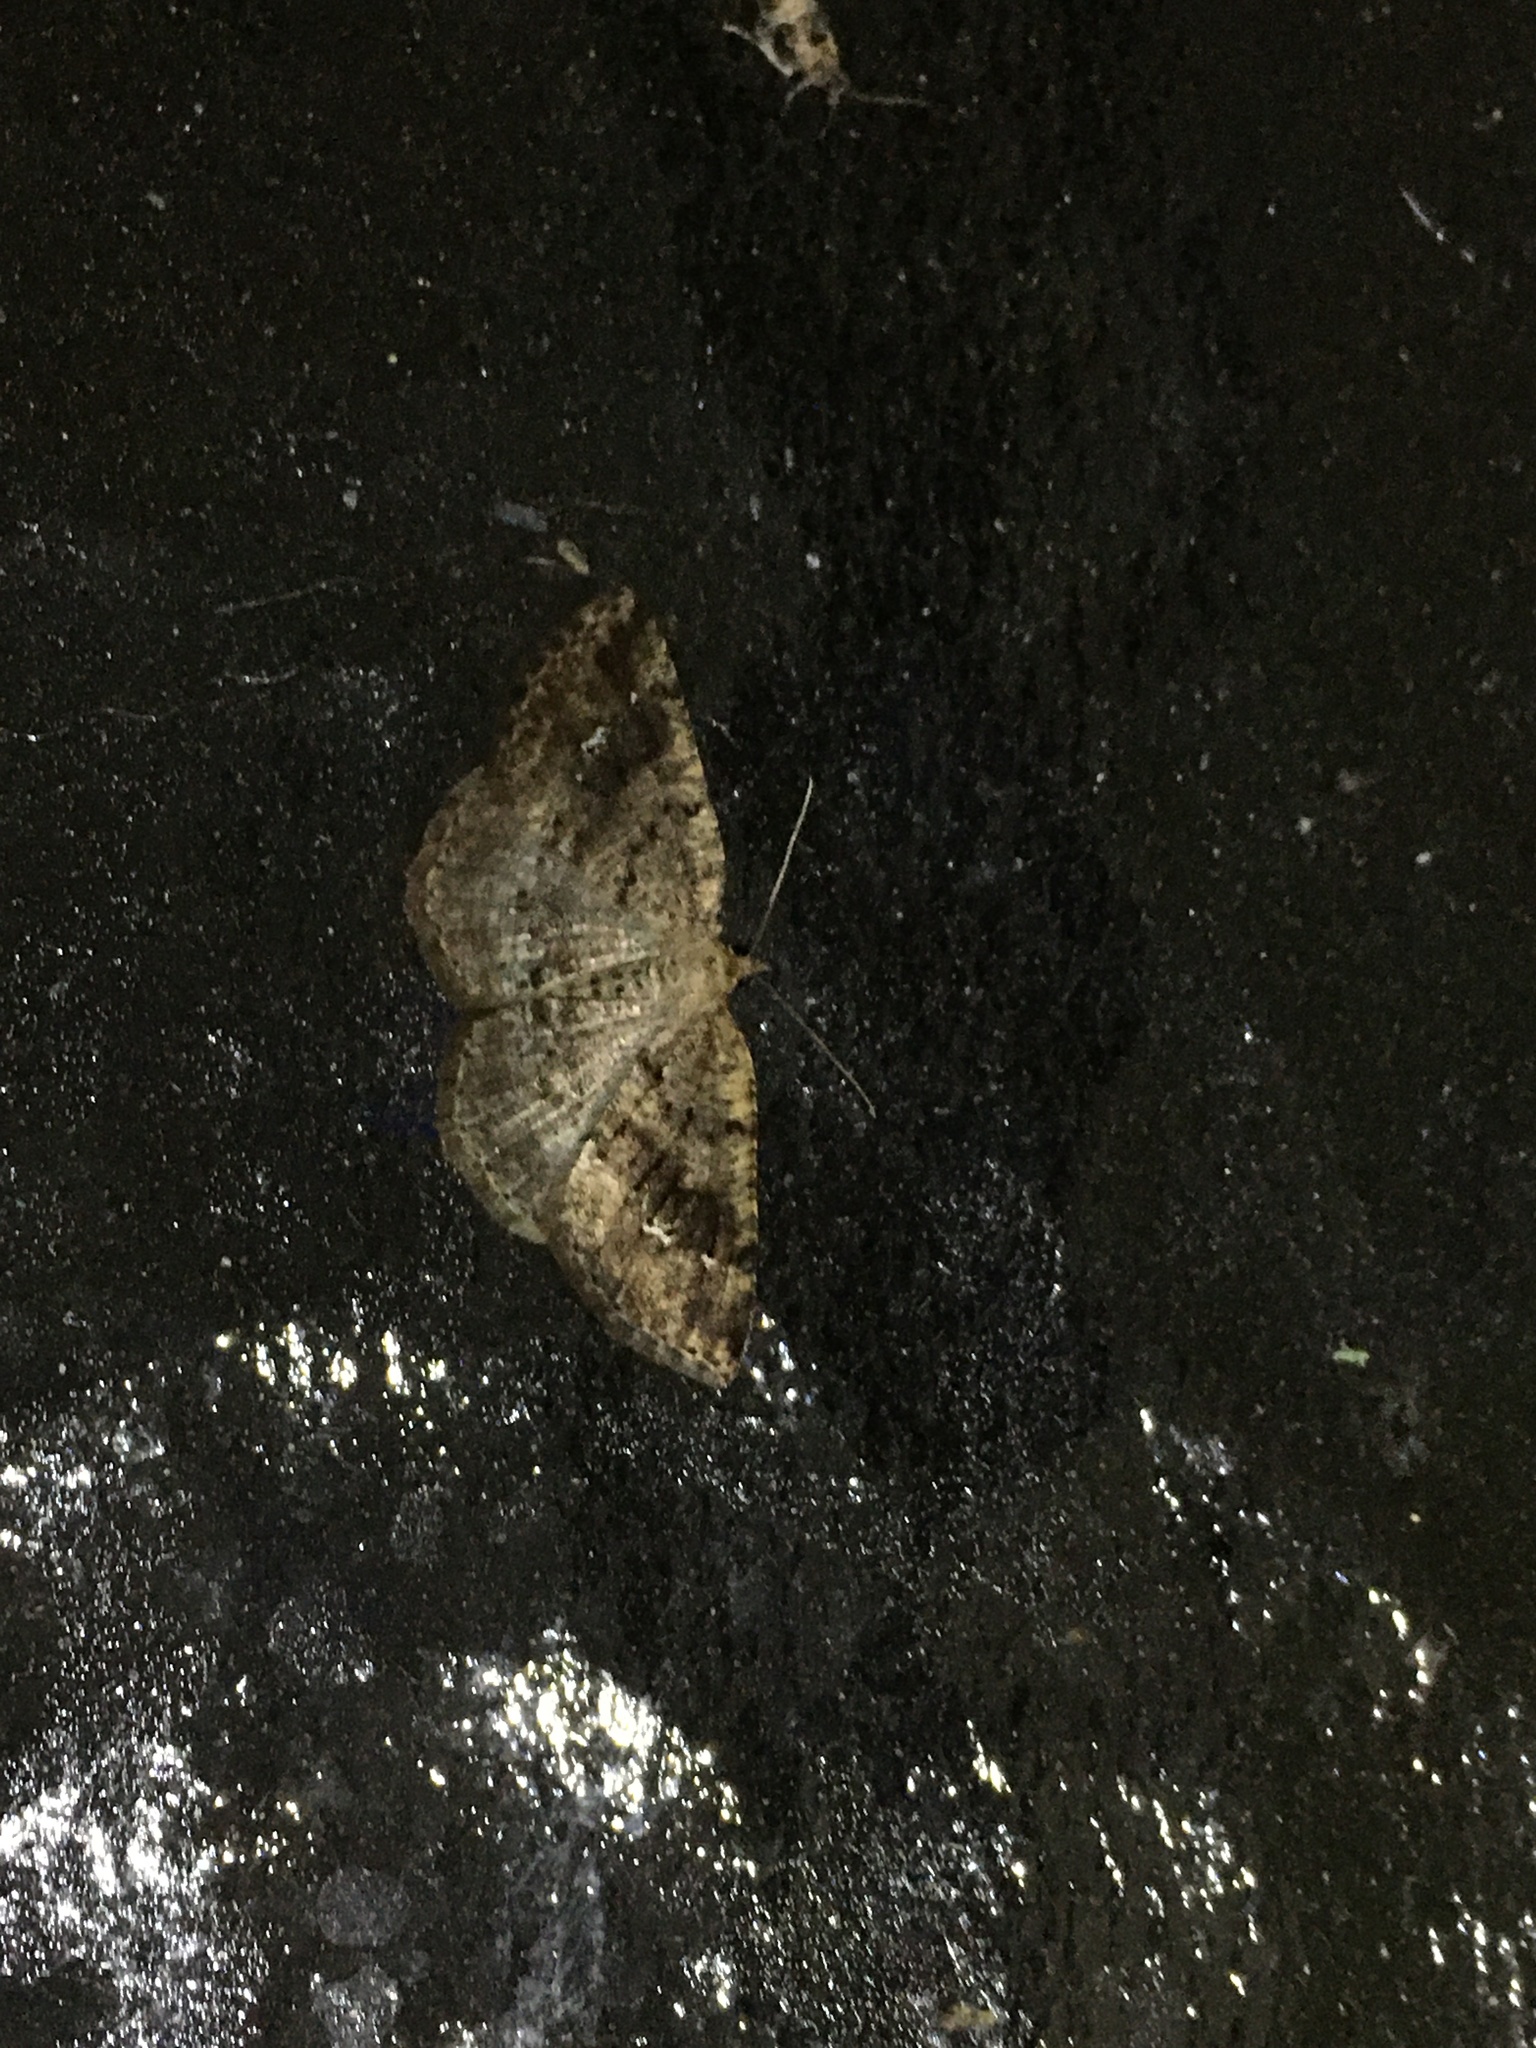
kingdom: Animalia
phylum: Arthropoda
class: Insecta
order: Lepidoptera
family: Geometridae
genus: Homochlodes
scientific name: Homochlodes fritillaria
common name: Pale homochlodes
